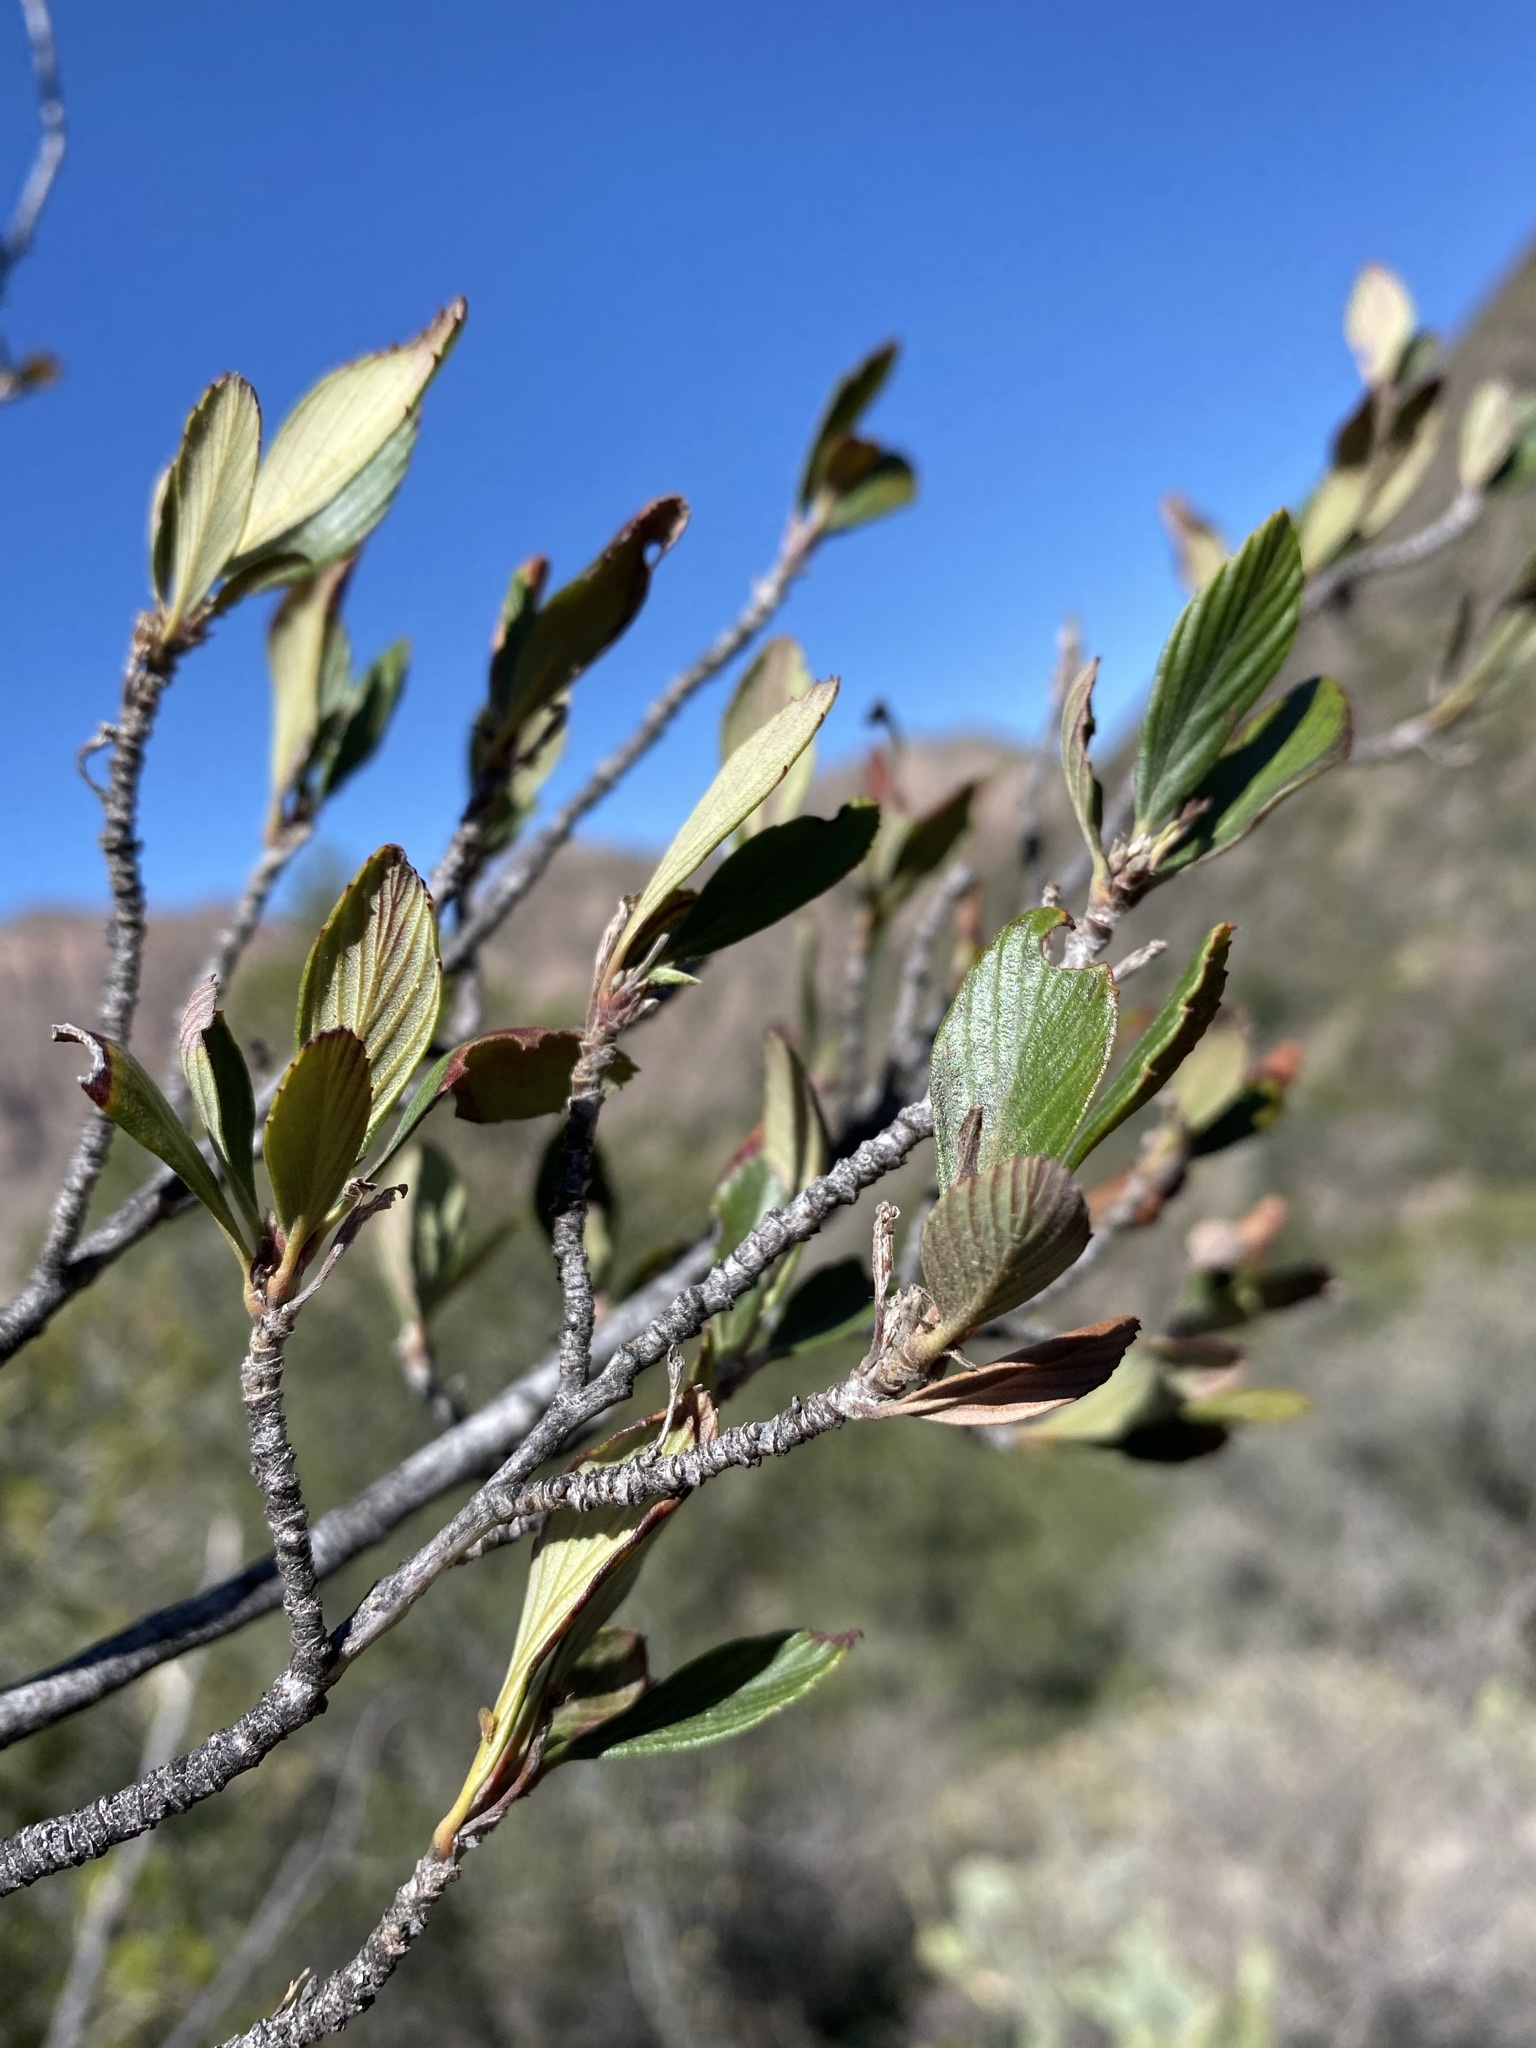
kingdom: Plantae
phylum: Tracheophyta
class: Magnoliopsida
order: Rosales
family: Rosaceae
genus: Cercocarpus
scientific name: Cercocarpus montanus
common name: Alder-leaf cercocarpus
